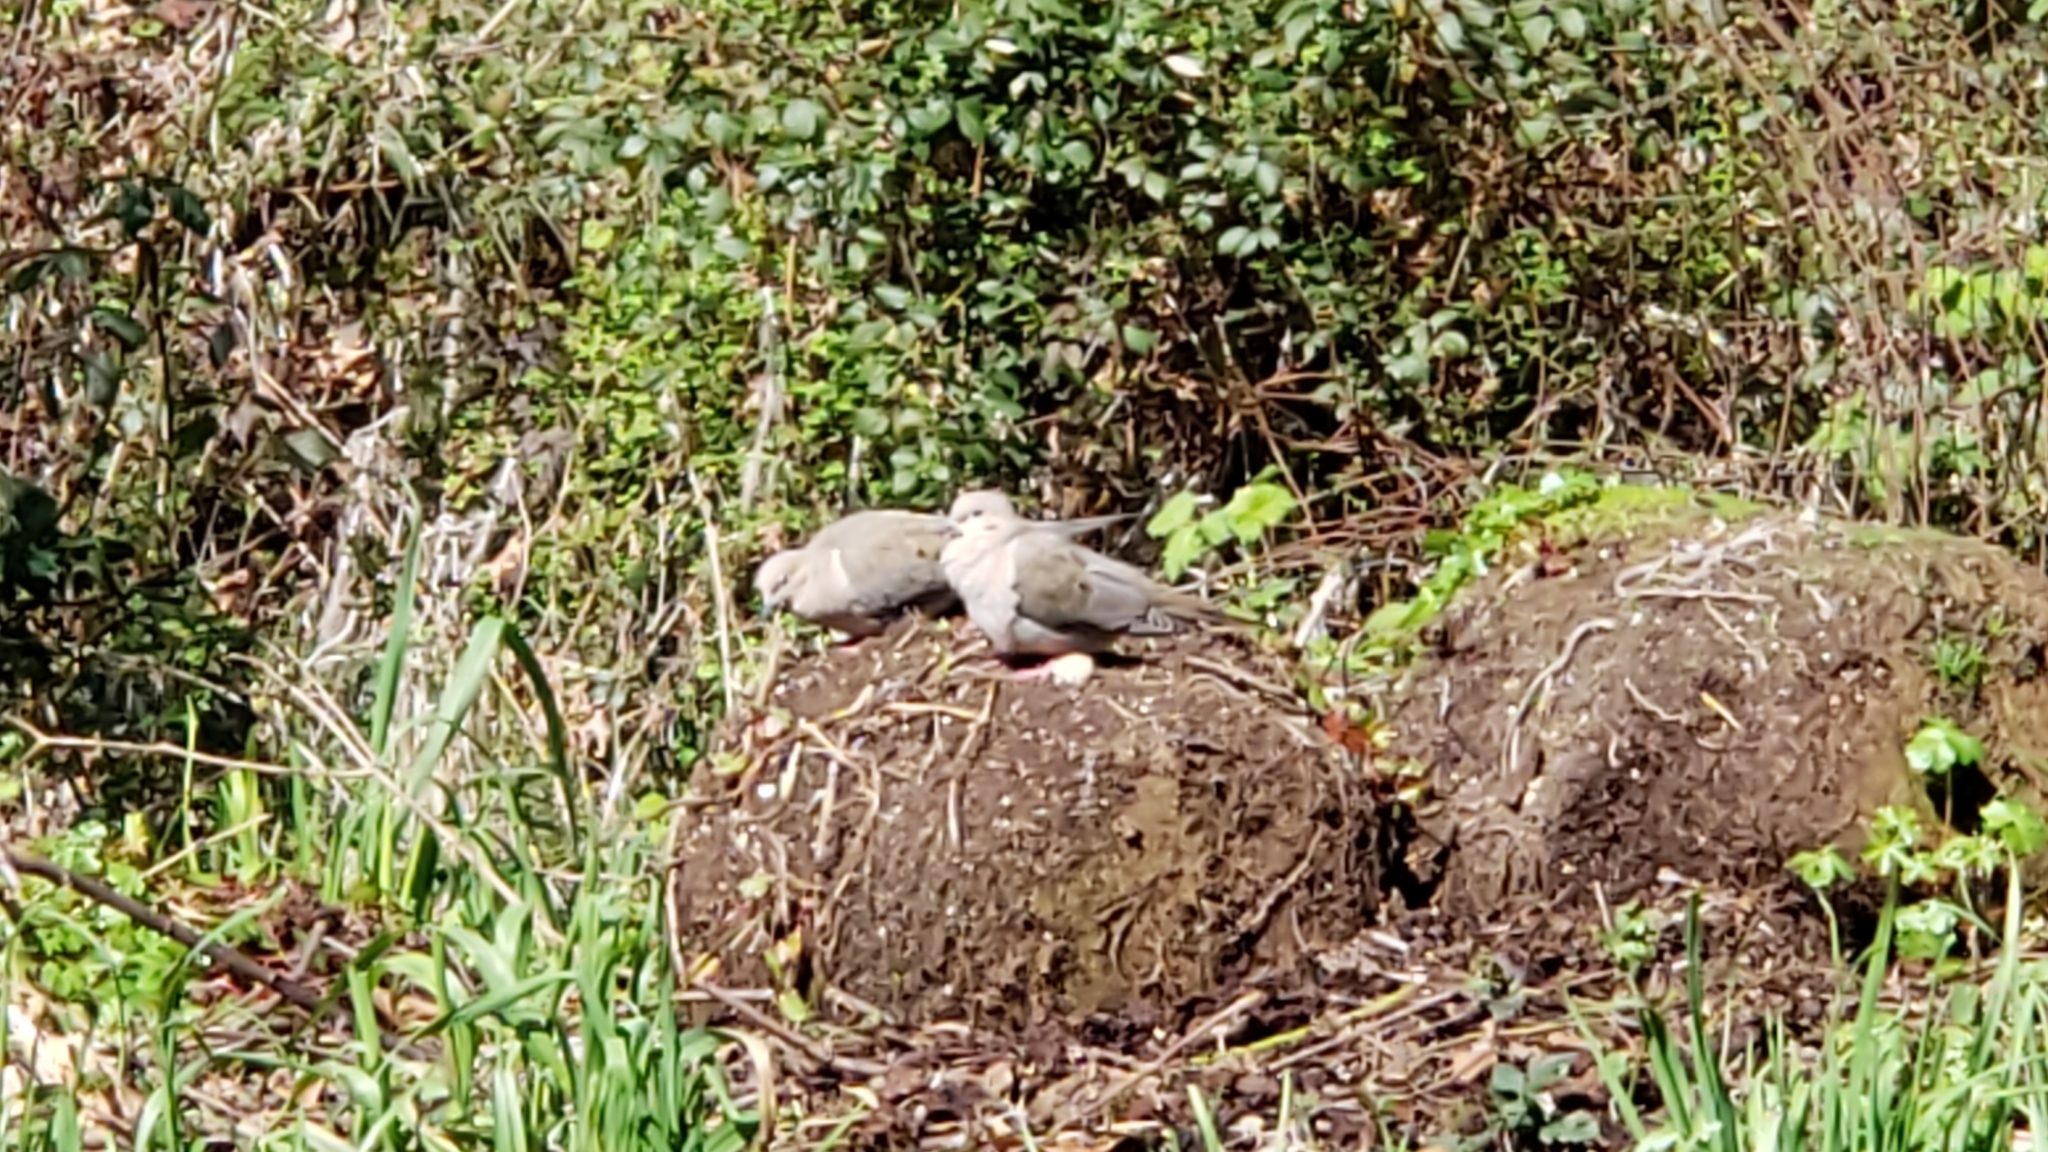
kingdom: Animalia
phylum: Chordata
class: Aves
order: Columbiformes
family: Columbidae
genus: Zenaida
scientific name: Zenaida macroura
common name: Mourning dove
